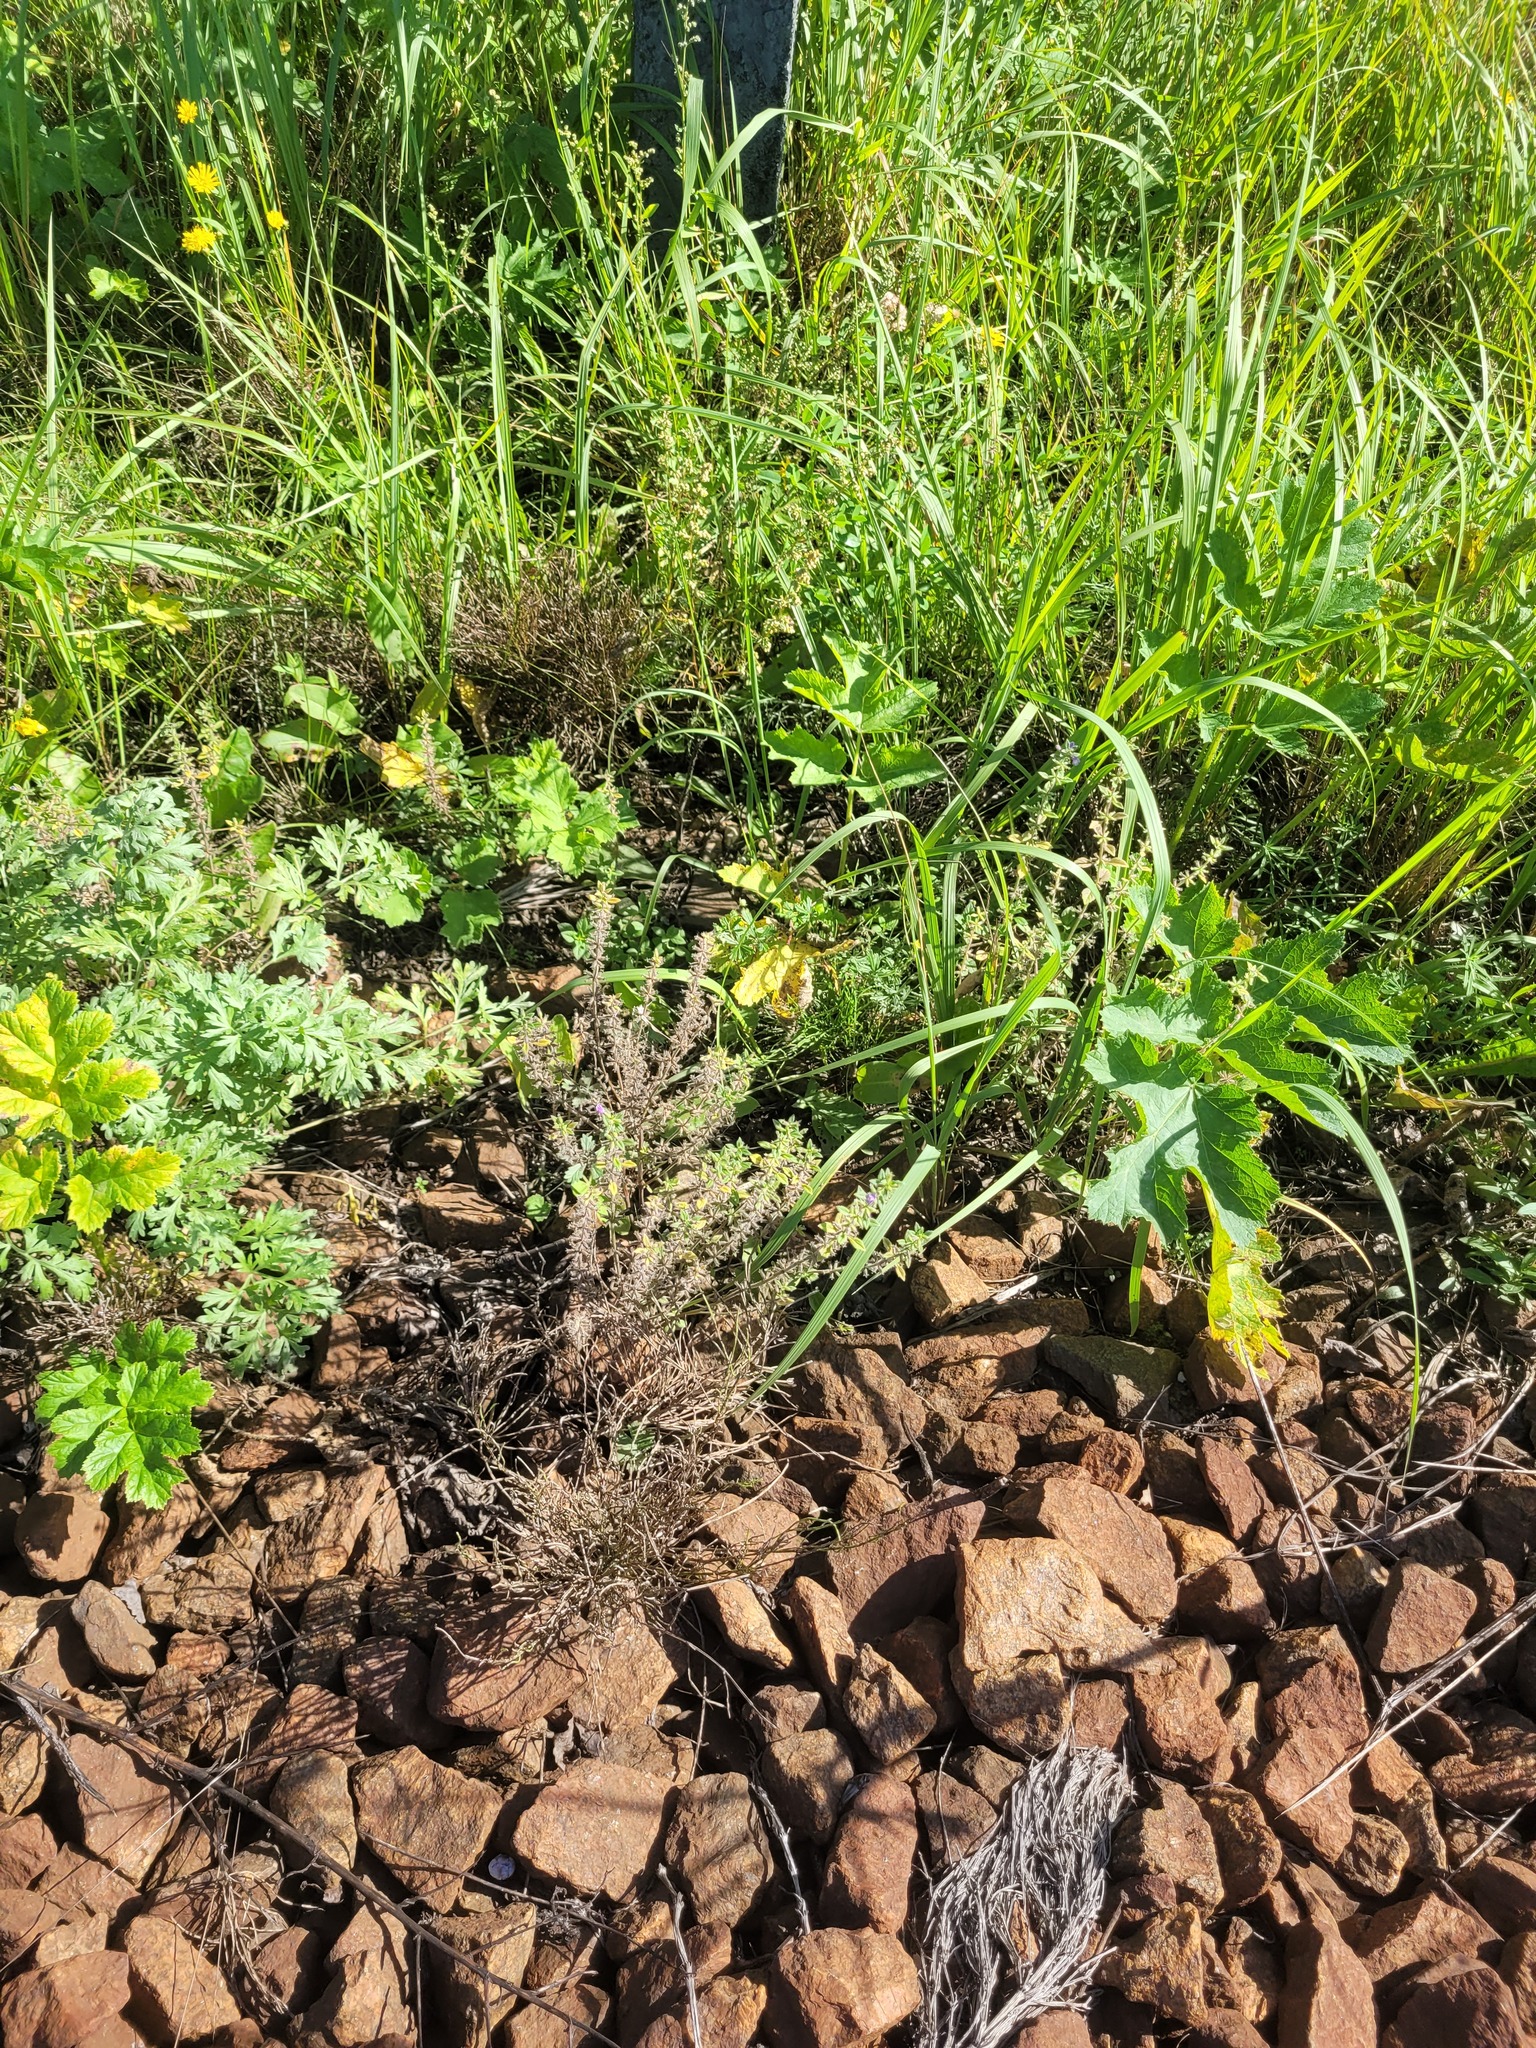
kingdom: Plantae
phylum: Tracheophyta
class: Magnoliopsida
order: Lamiales
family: Lamiaceae
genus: Clinopodium
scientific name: Clinopodium acinos
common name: Basil thyme
